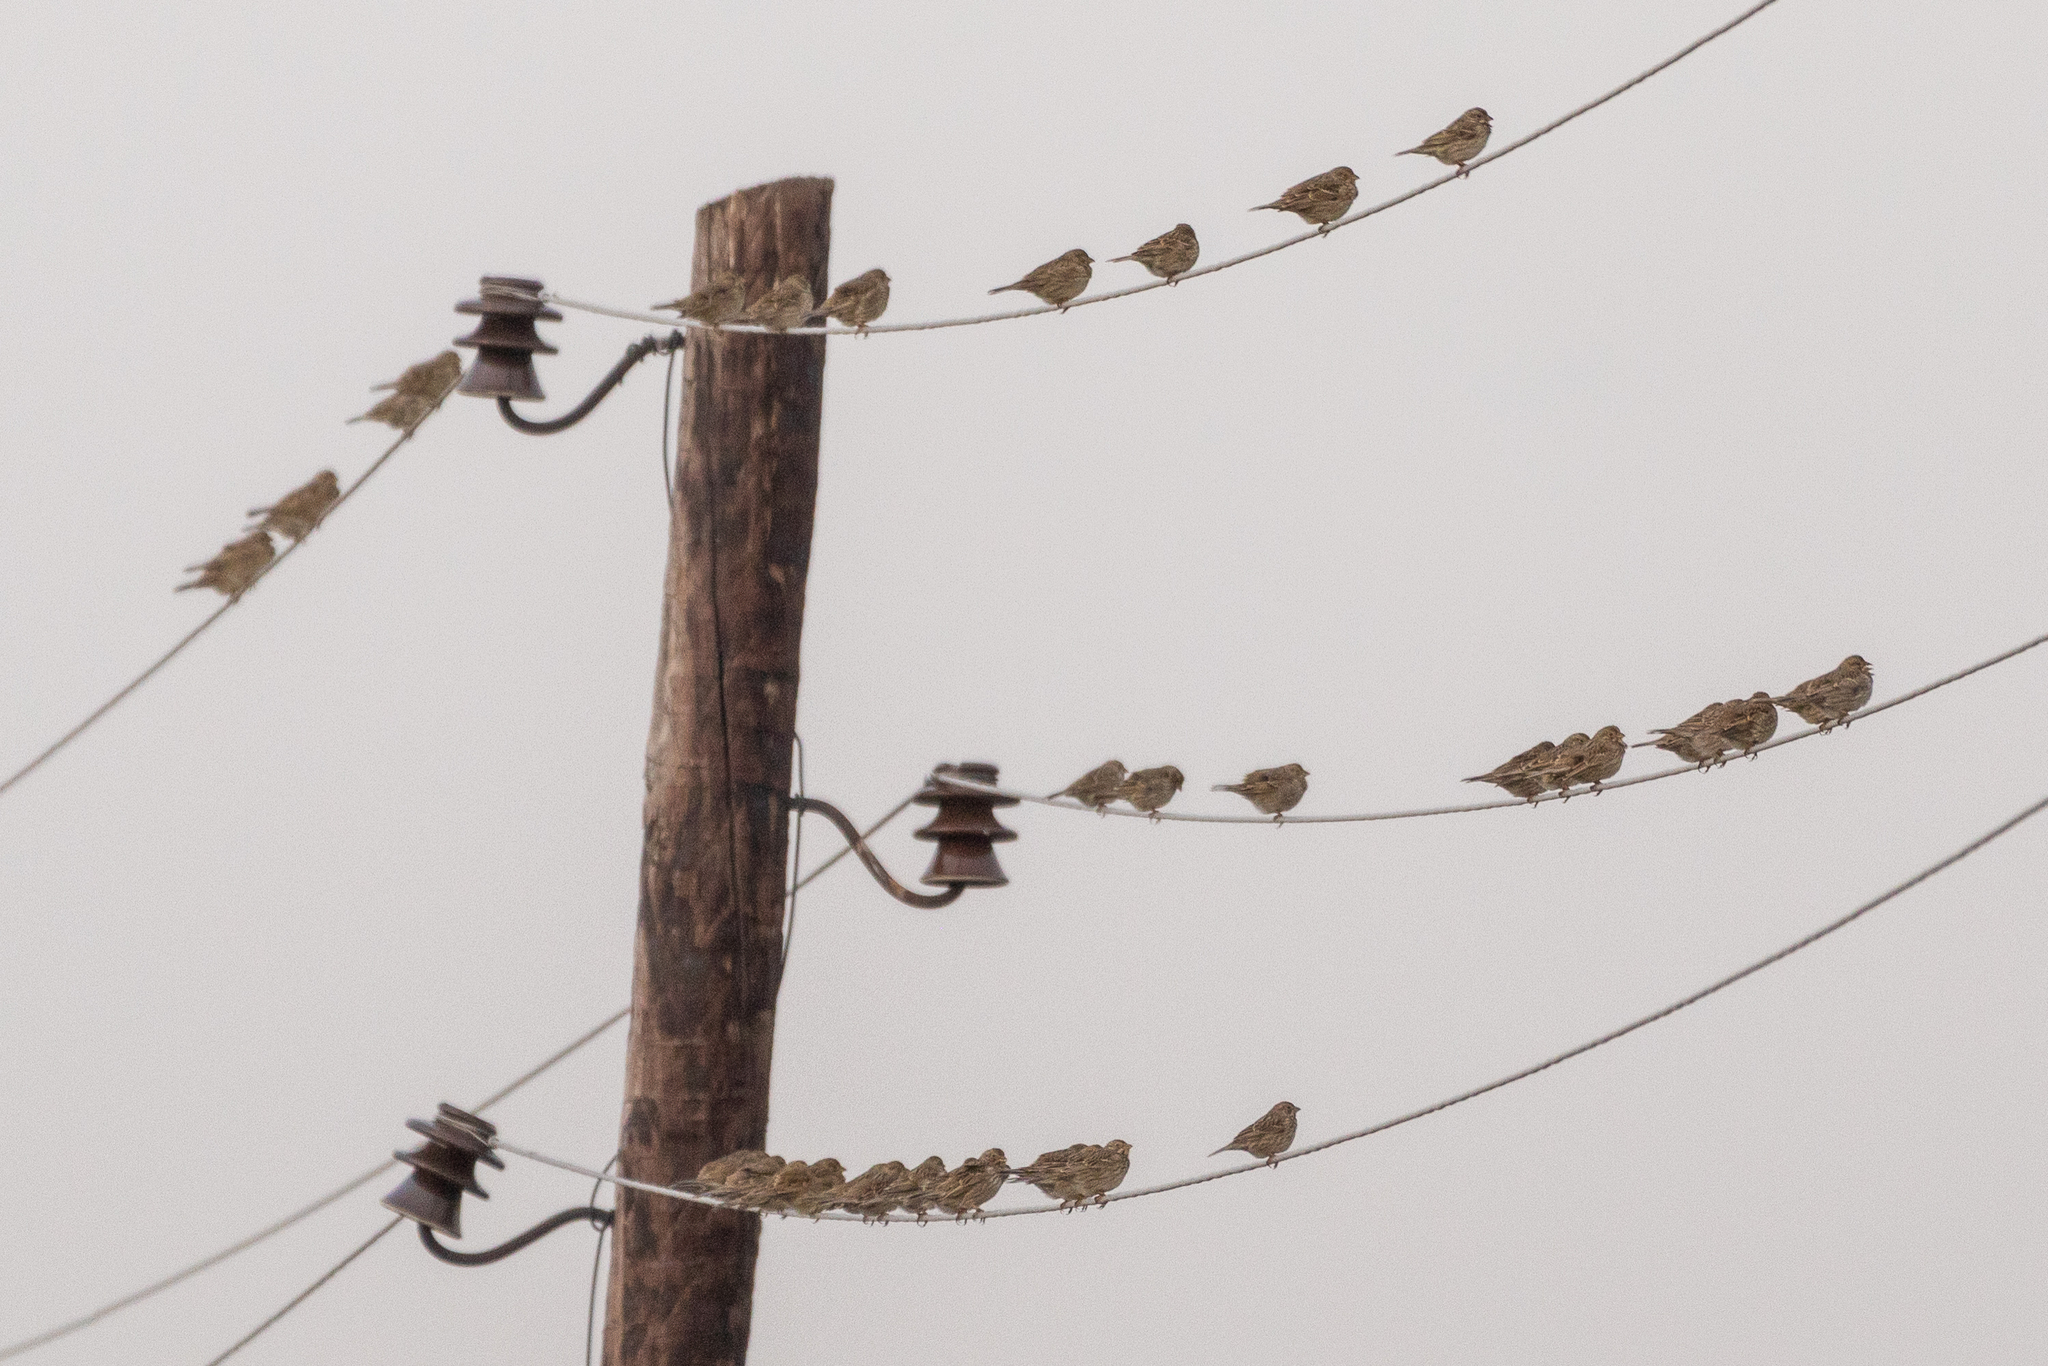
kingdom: Animalia
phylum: Chordata
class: Aves
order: Passeriformes
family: Emberizidae
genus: Emberiza
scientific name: Emberiza calandra
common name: Corn bunting
